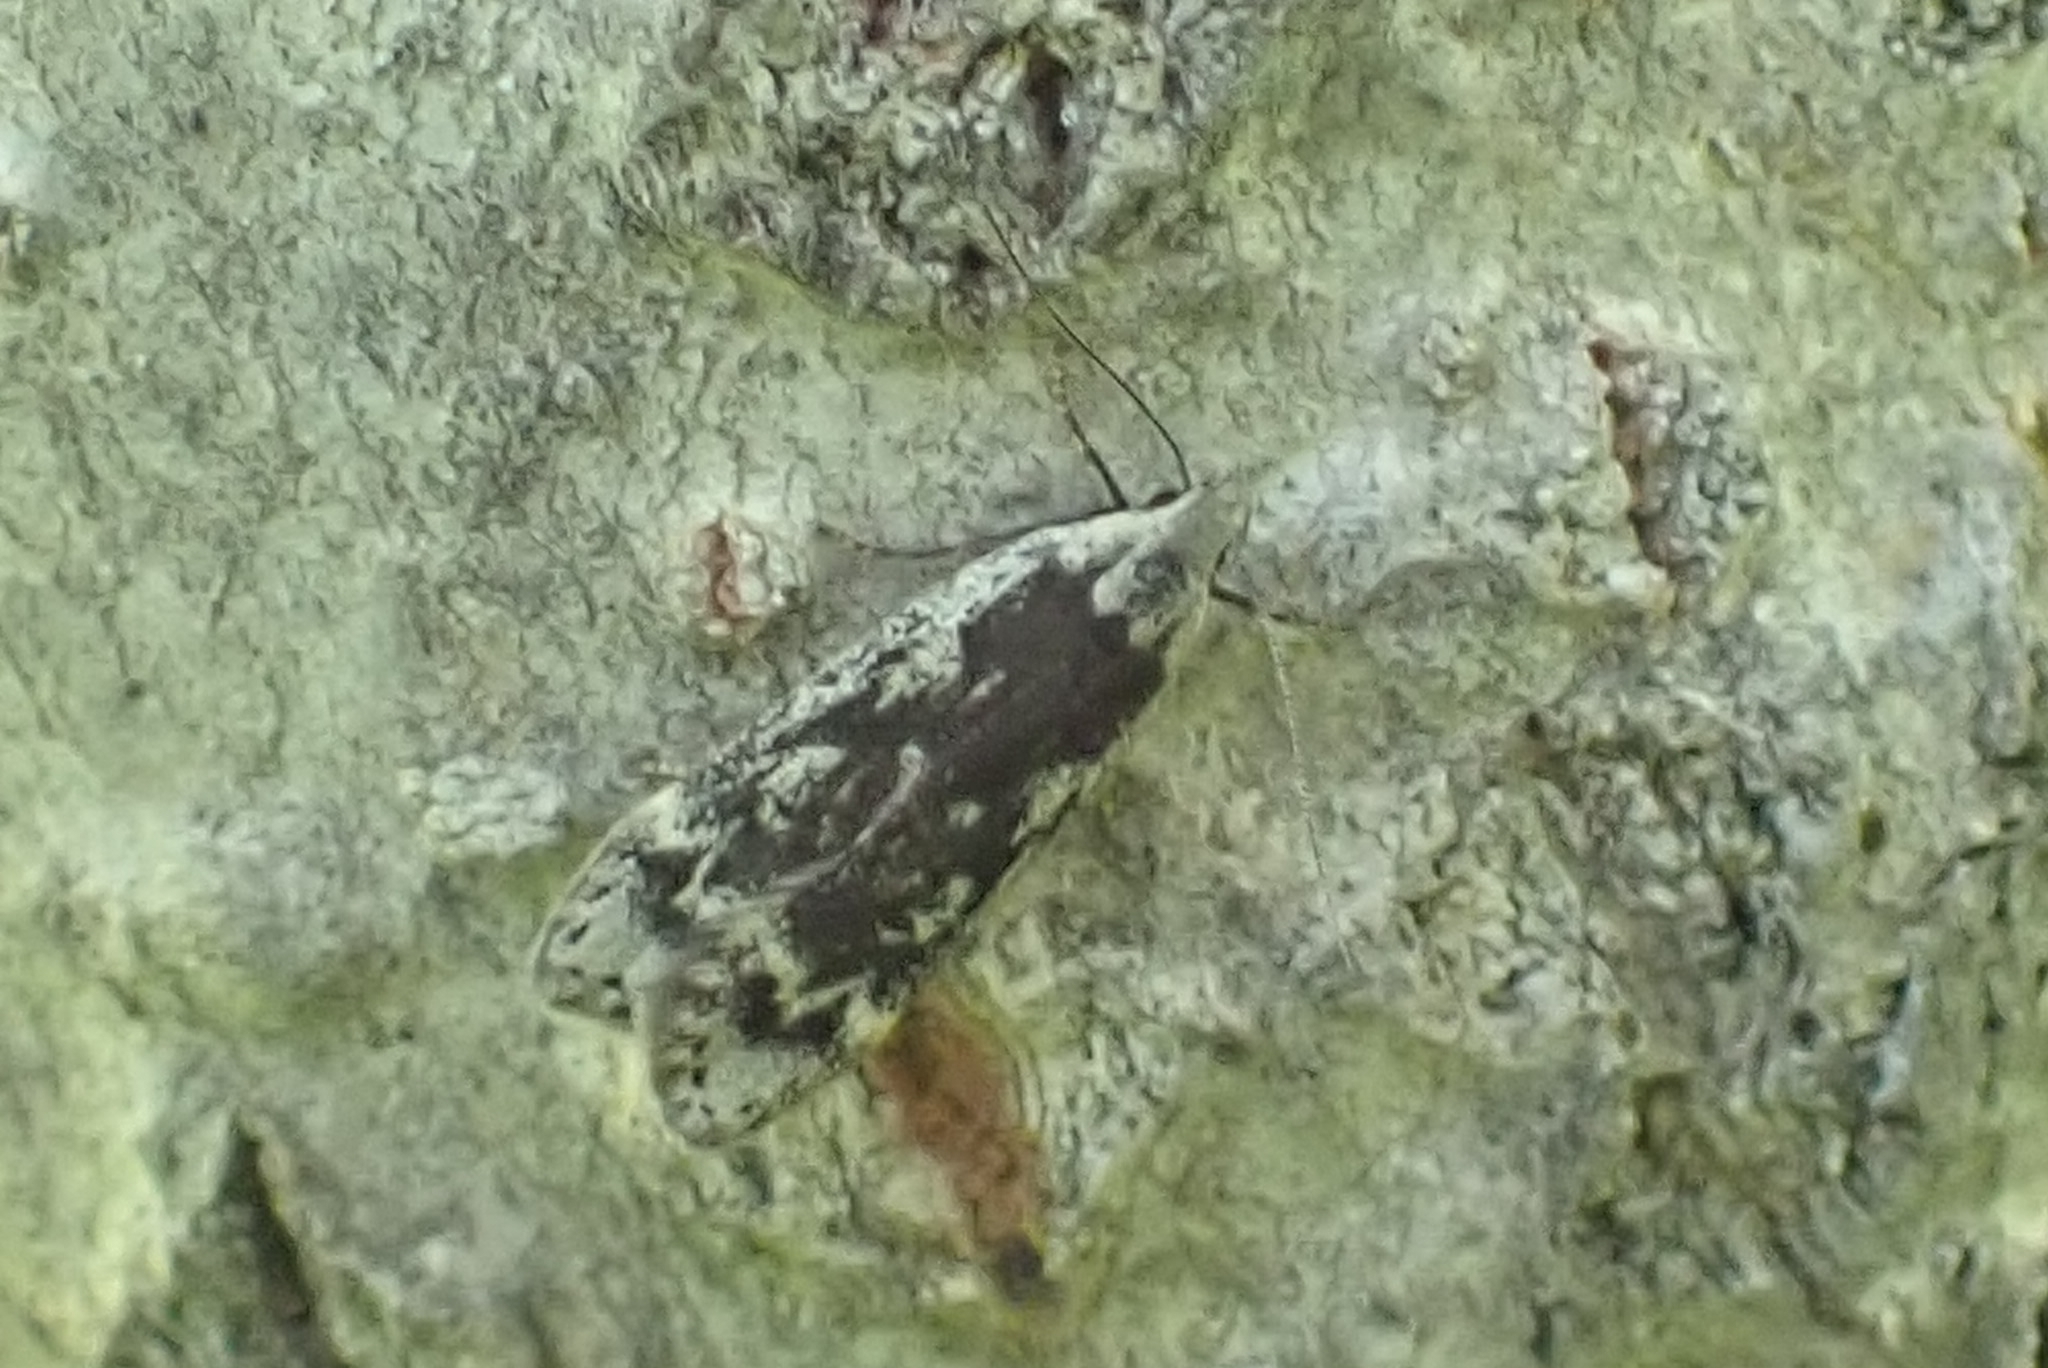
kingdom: Animalia
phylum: Arthropoda
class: Insecta
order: Lepidoptera
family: Gelechiidae
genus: Anacampsis
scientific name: Anacampsis blattariella
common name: Birch sober
